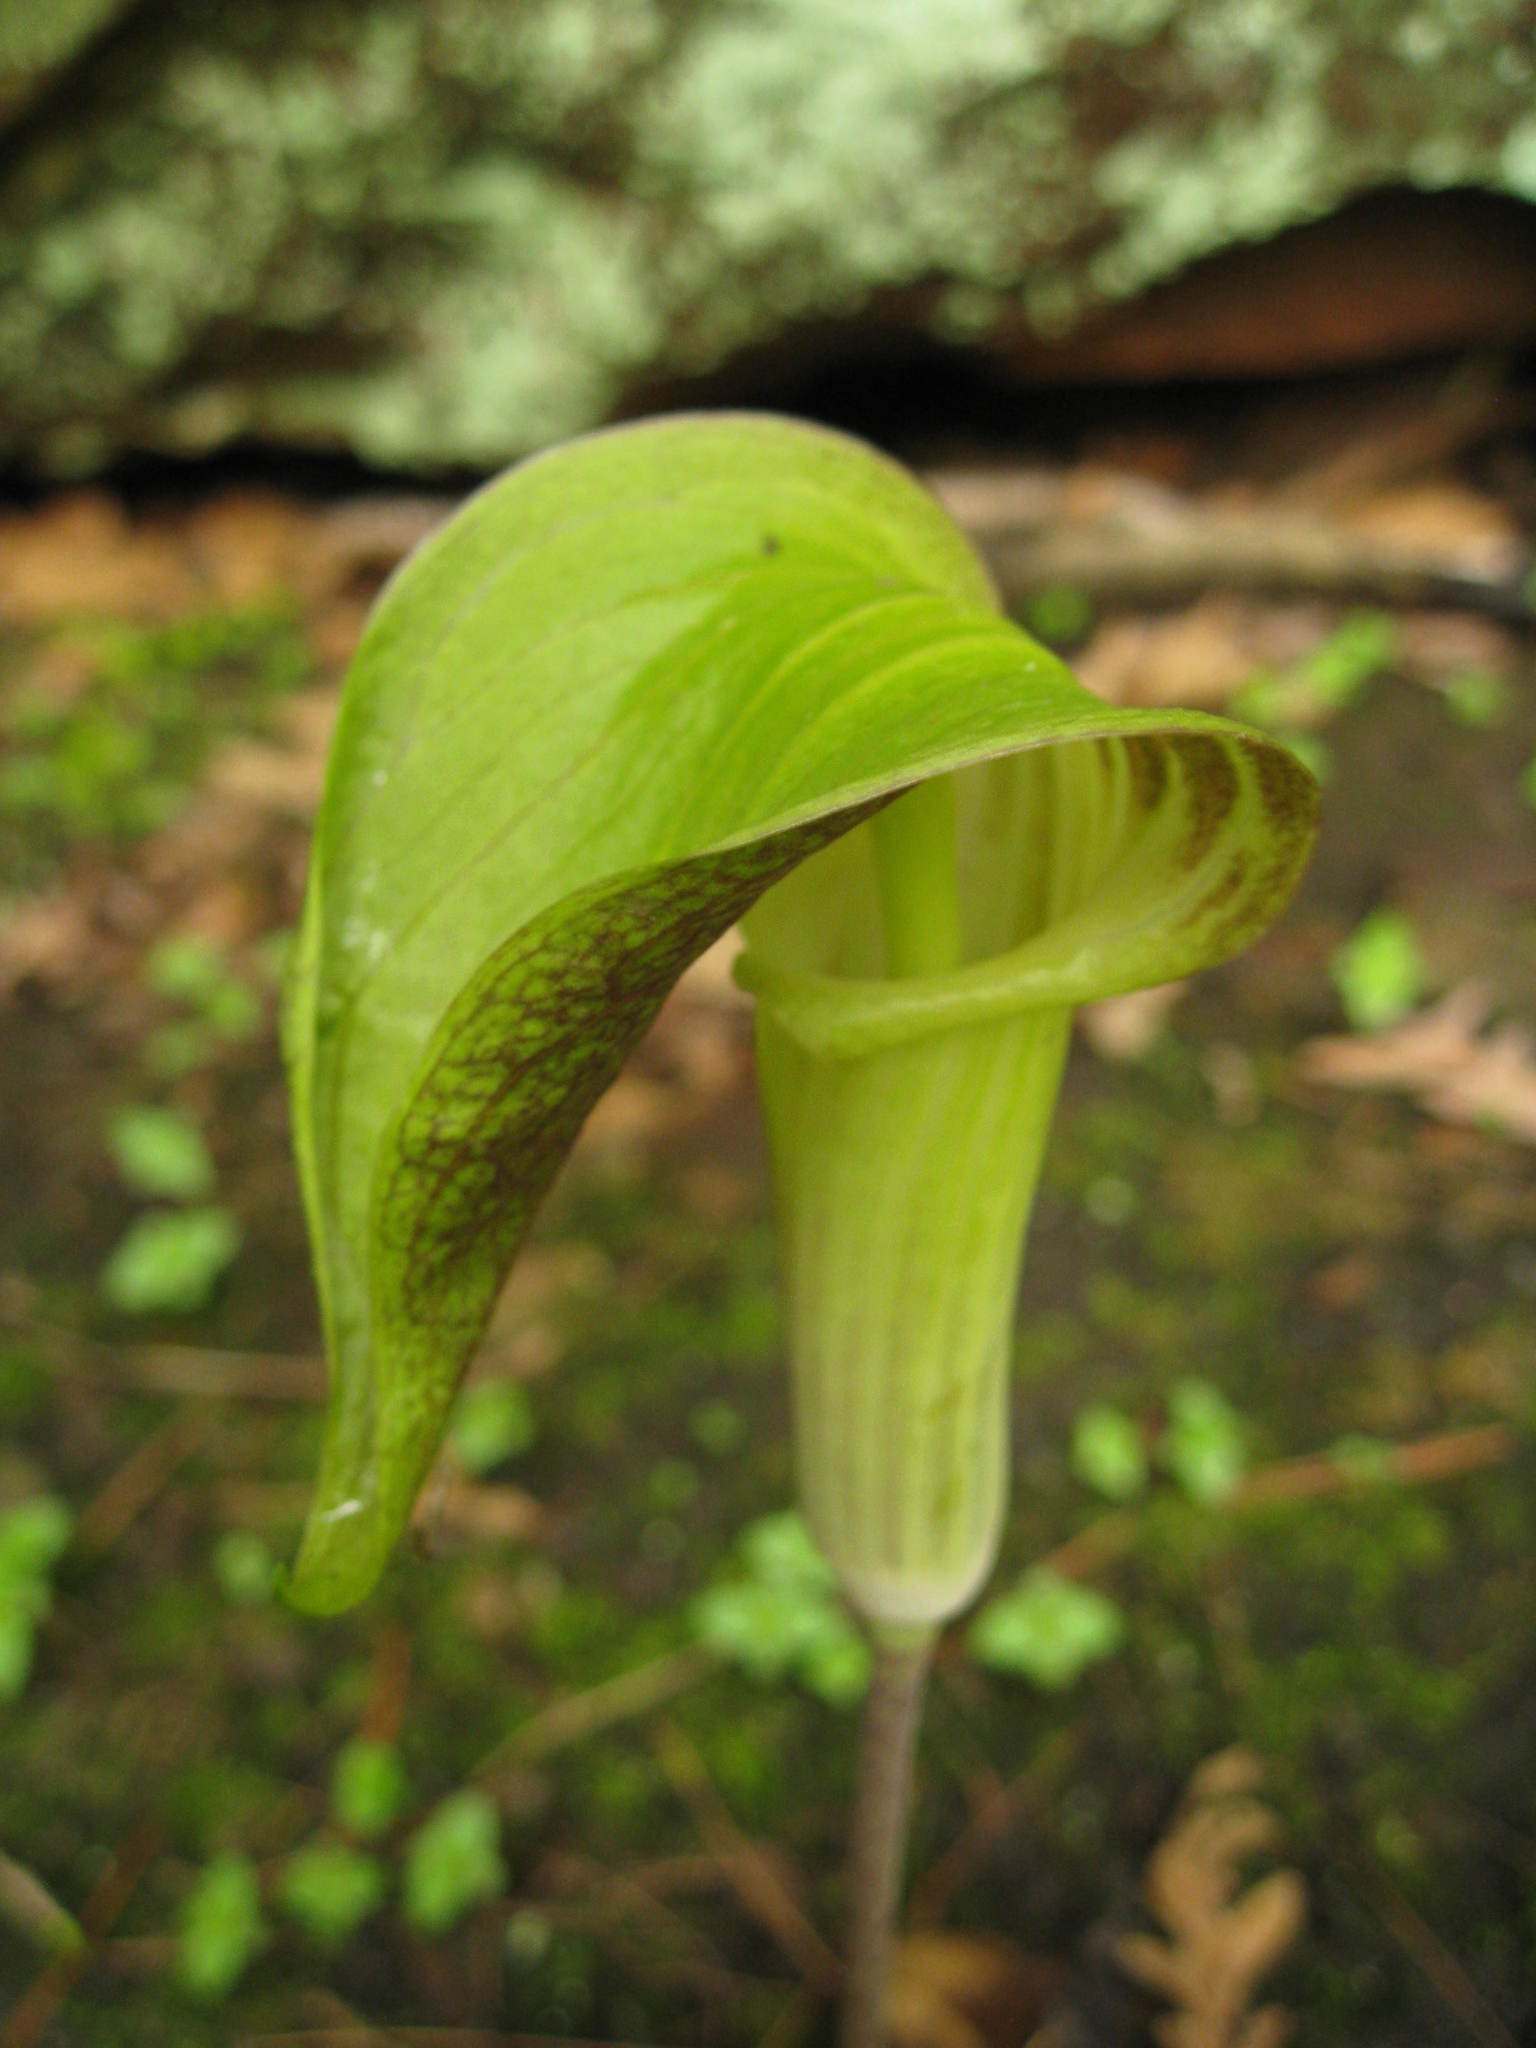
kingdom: Plantae
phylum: Tracheophyta
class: Liliopsida
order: Alismatales
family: Araceae
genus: Arisaema
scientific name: Arisaema triphyllum
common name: Jack-in-the-pulpit
